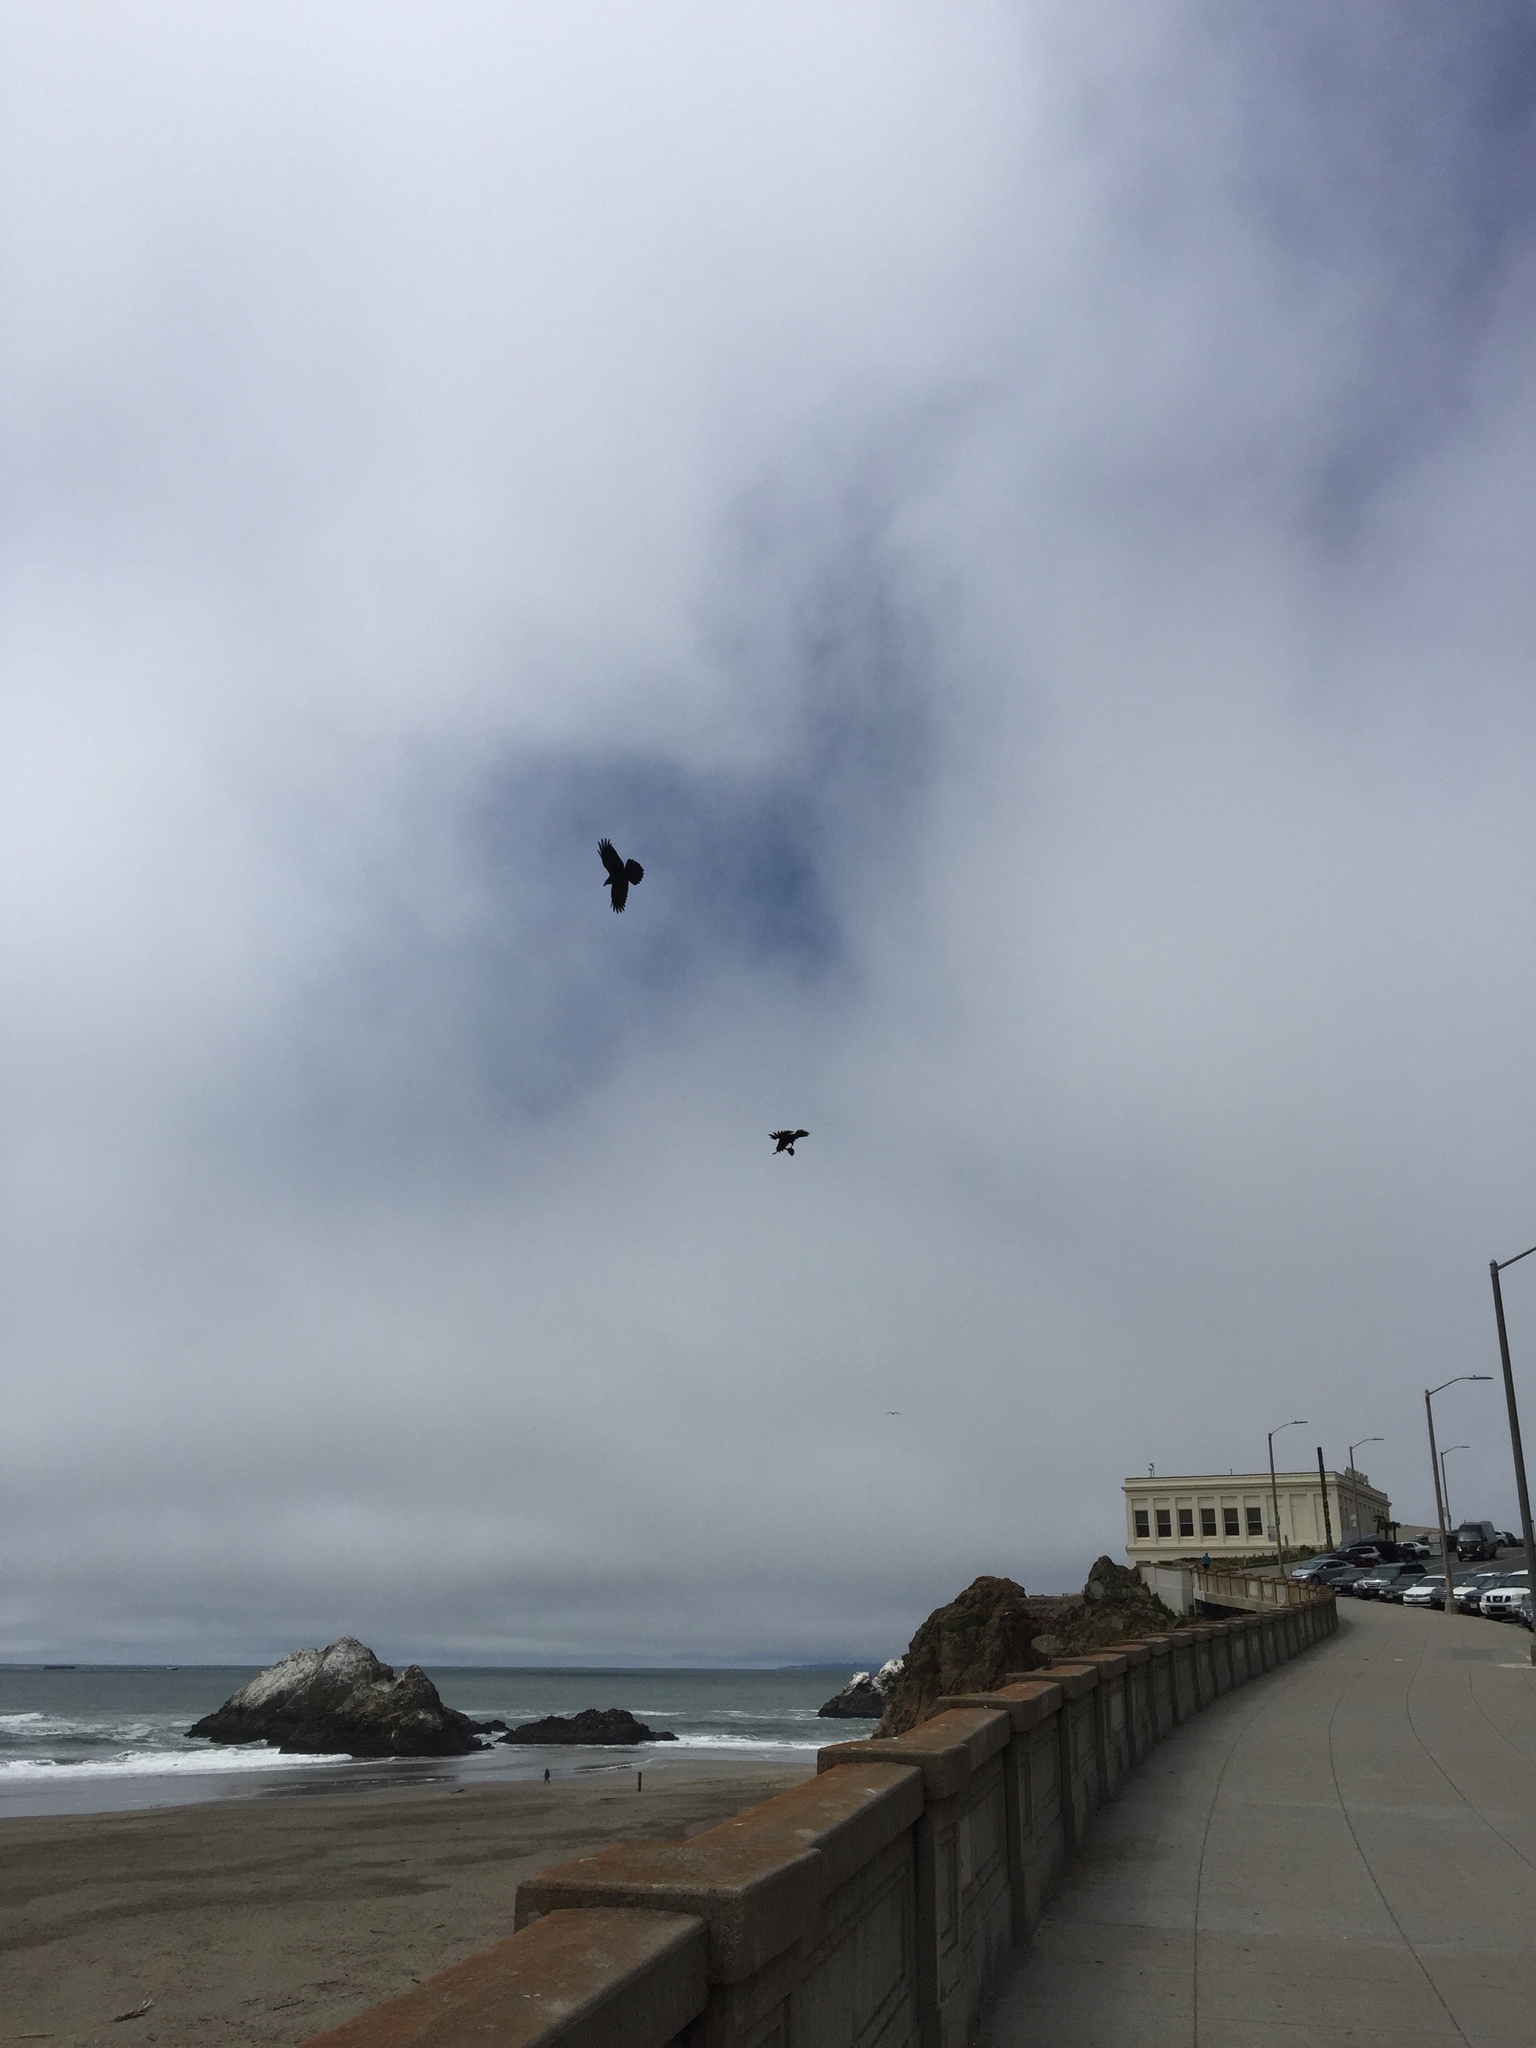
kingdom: Animalia
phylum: Chordata
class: Aves
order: Passeriformes
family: Corvidae
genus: Corvus
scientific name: Corvus corax
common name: Common raven
